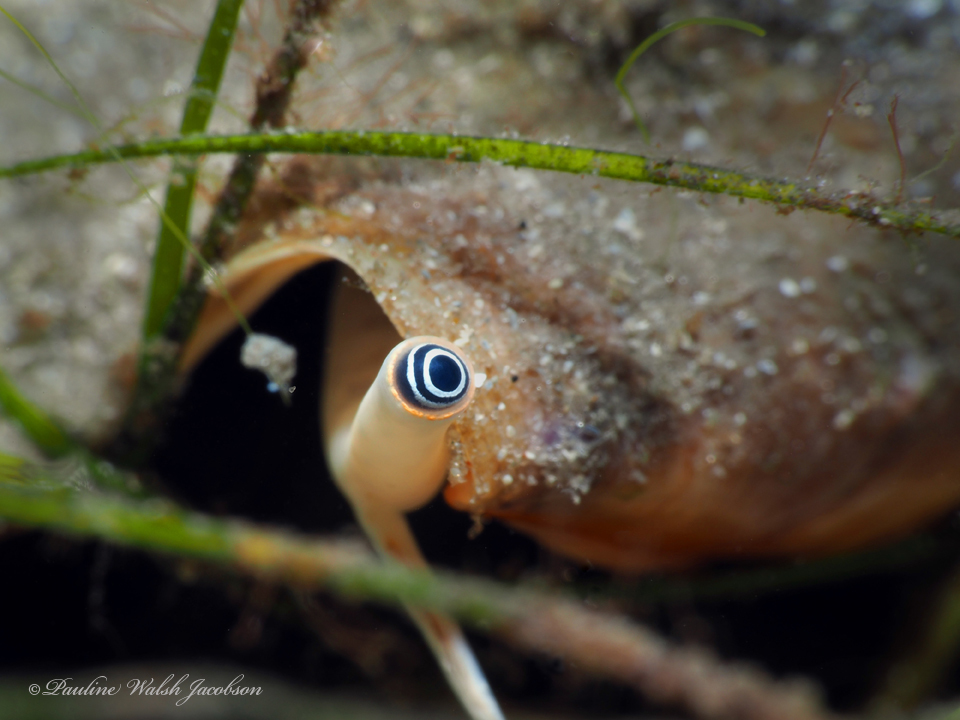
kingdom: Animalia
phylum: Mollusca
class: Gastropoda
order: Littorinimorpha
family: Strombidae
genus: Strombus
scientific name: Strombus alatus
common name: Florida fighting conch
